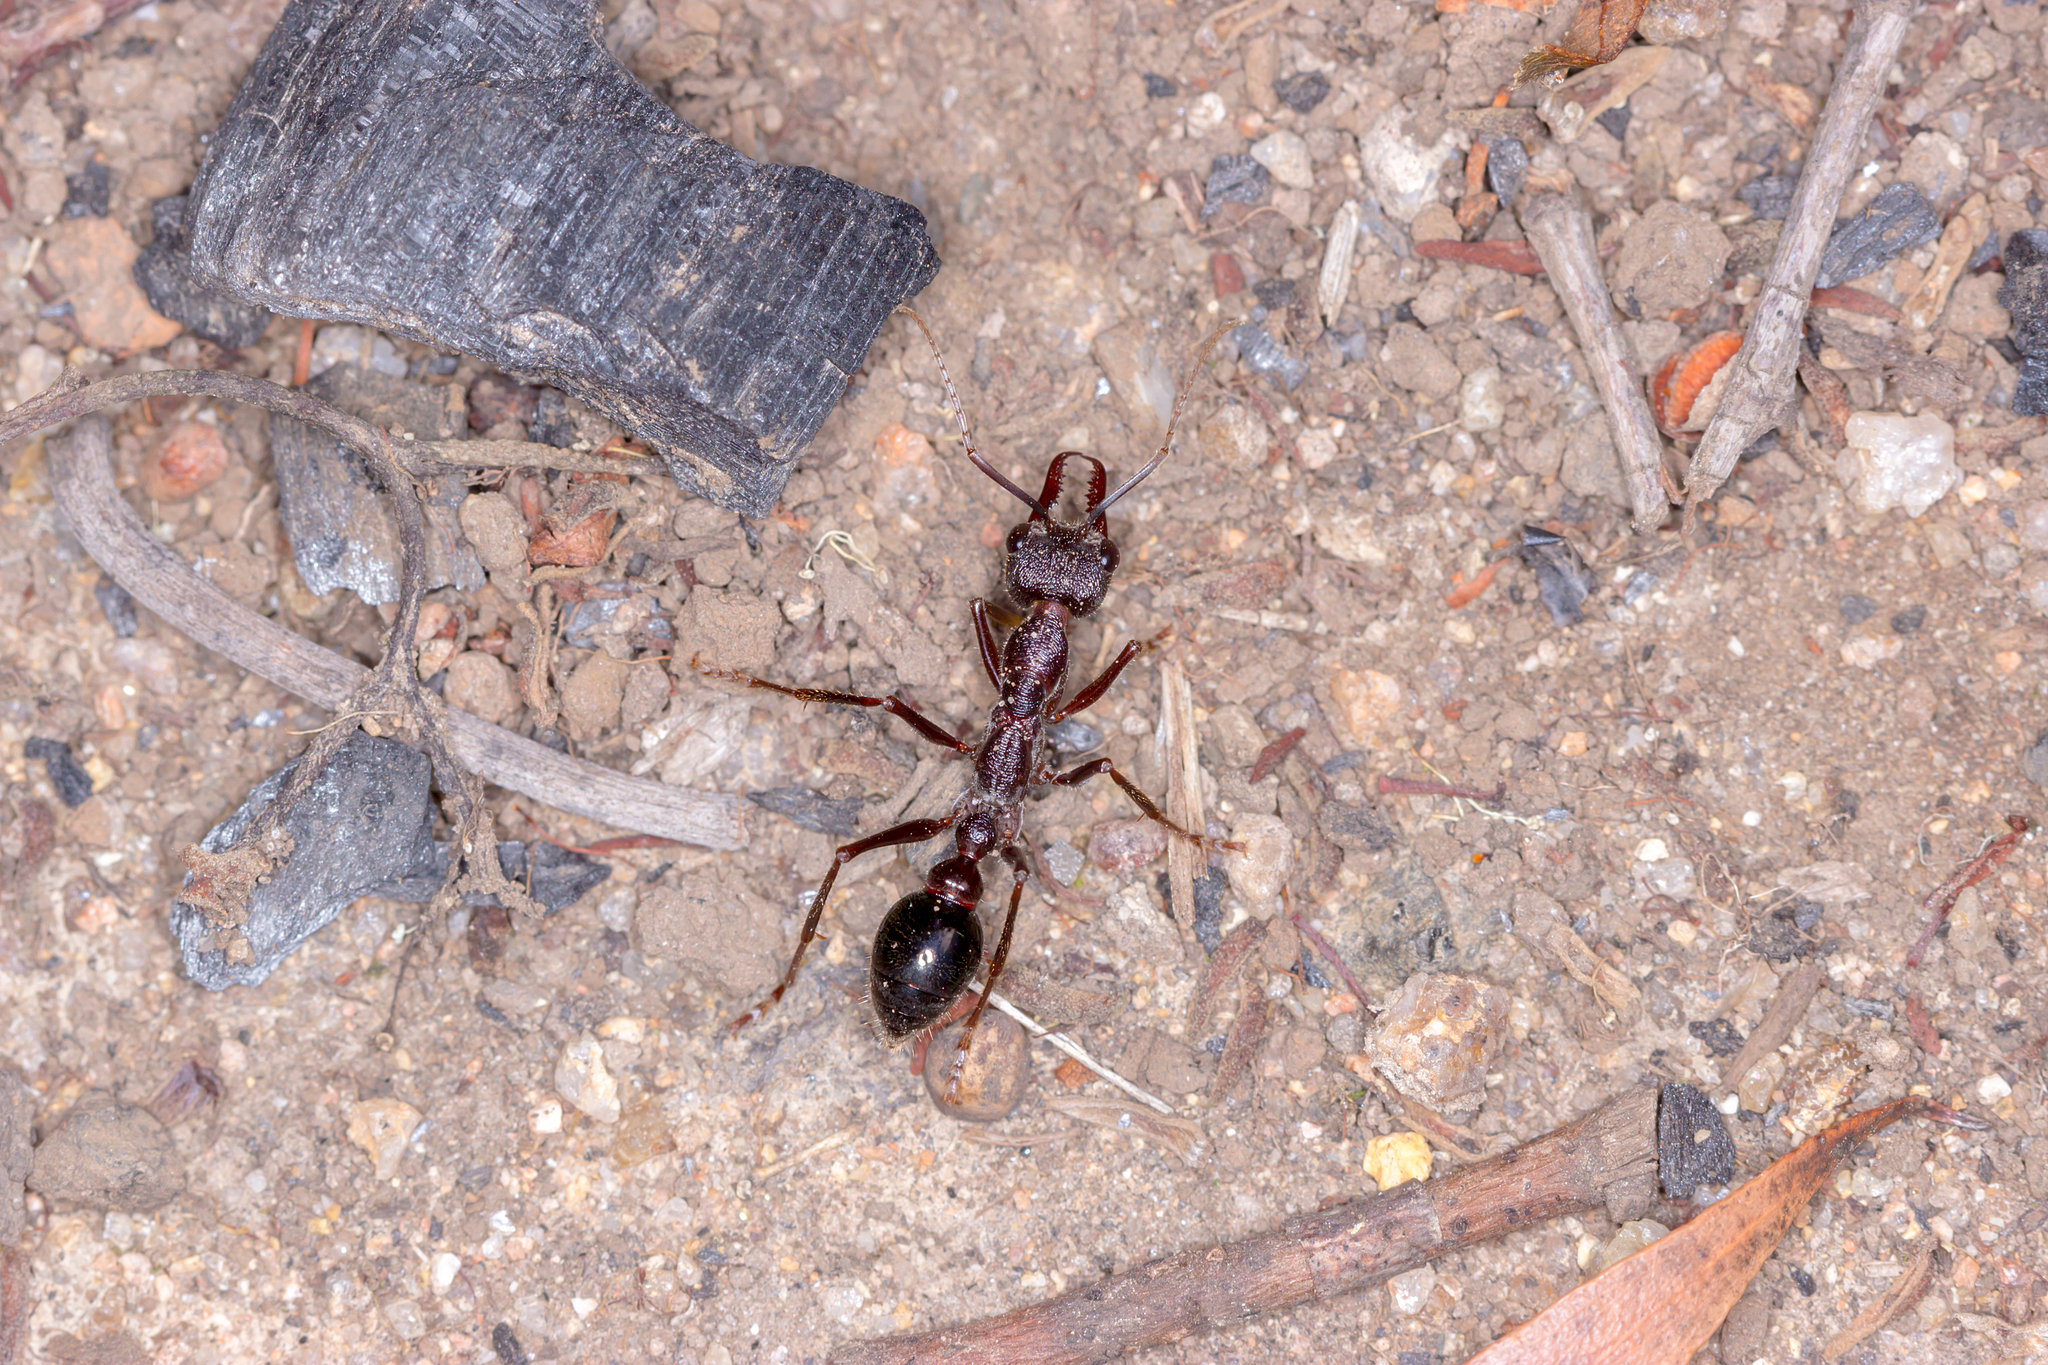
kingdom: Animalia
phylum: Arthropoda
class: Insecta
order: Hymenoptera
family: Formicidae
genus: Myrmecia
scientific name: Myrmecia forficata
